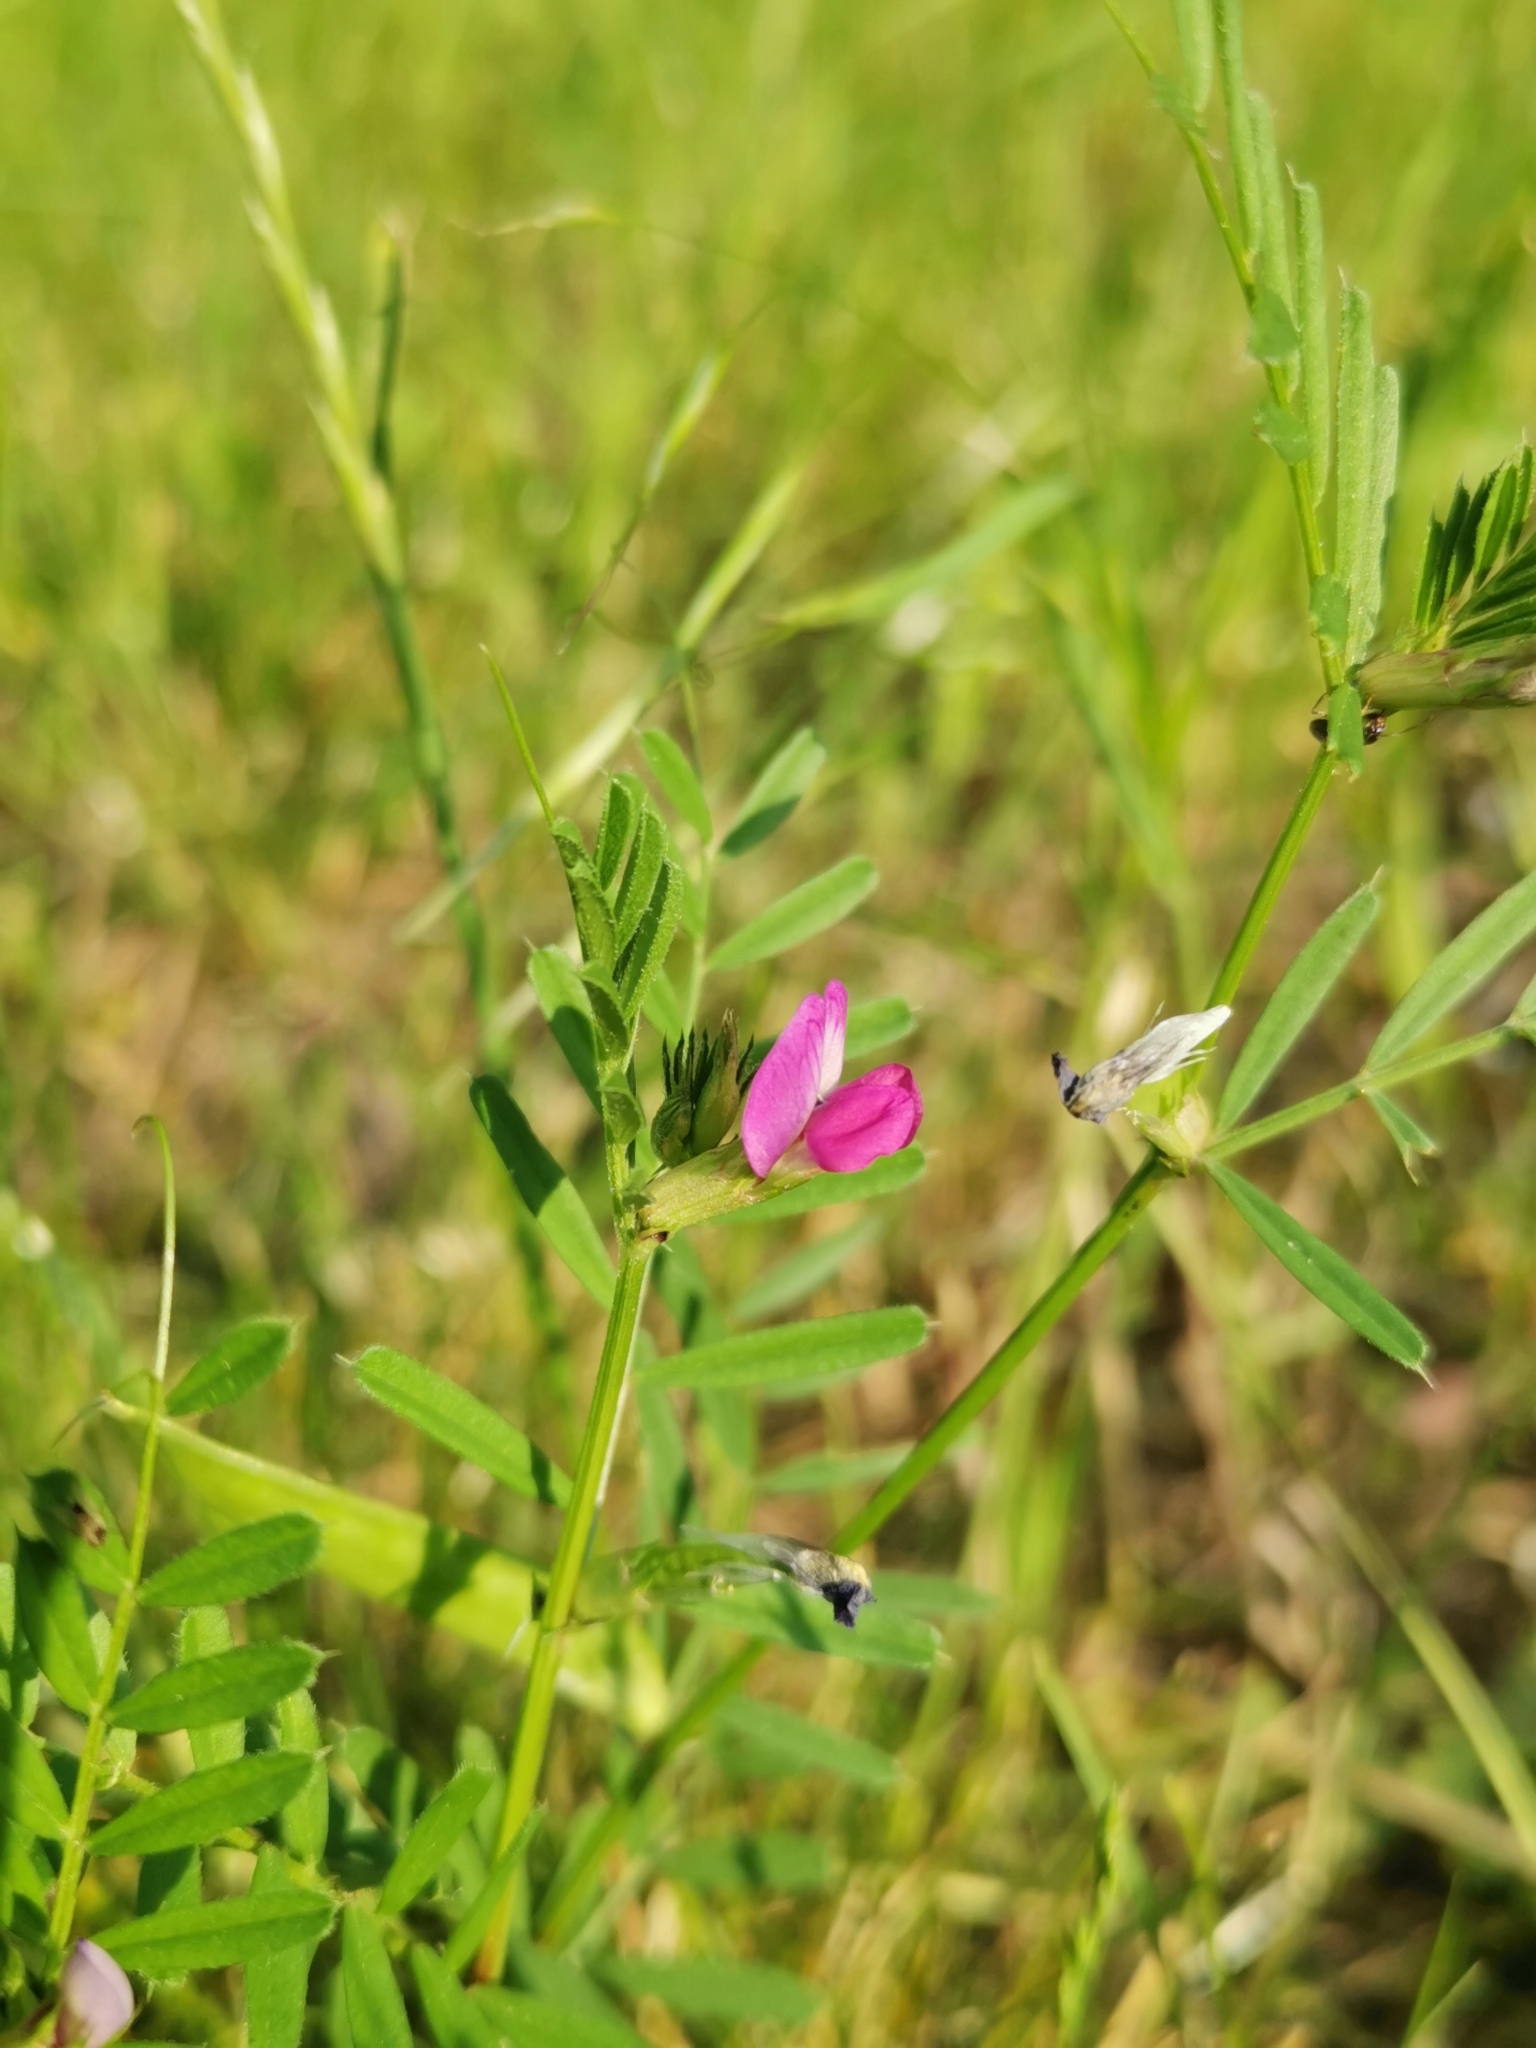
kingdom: Plantae
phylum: Tracheophyta
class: Magnoliopsida
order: Fabales
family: Fabaceae
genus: Vicia
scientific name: Vicia sativa
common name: Garden vetch
